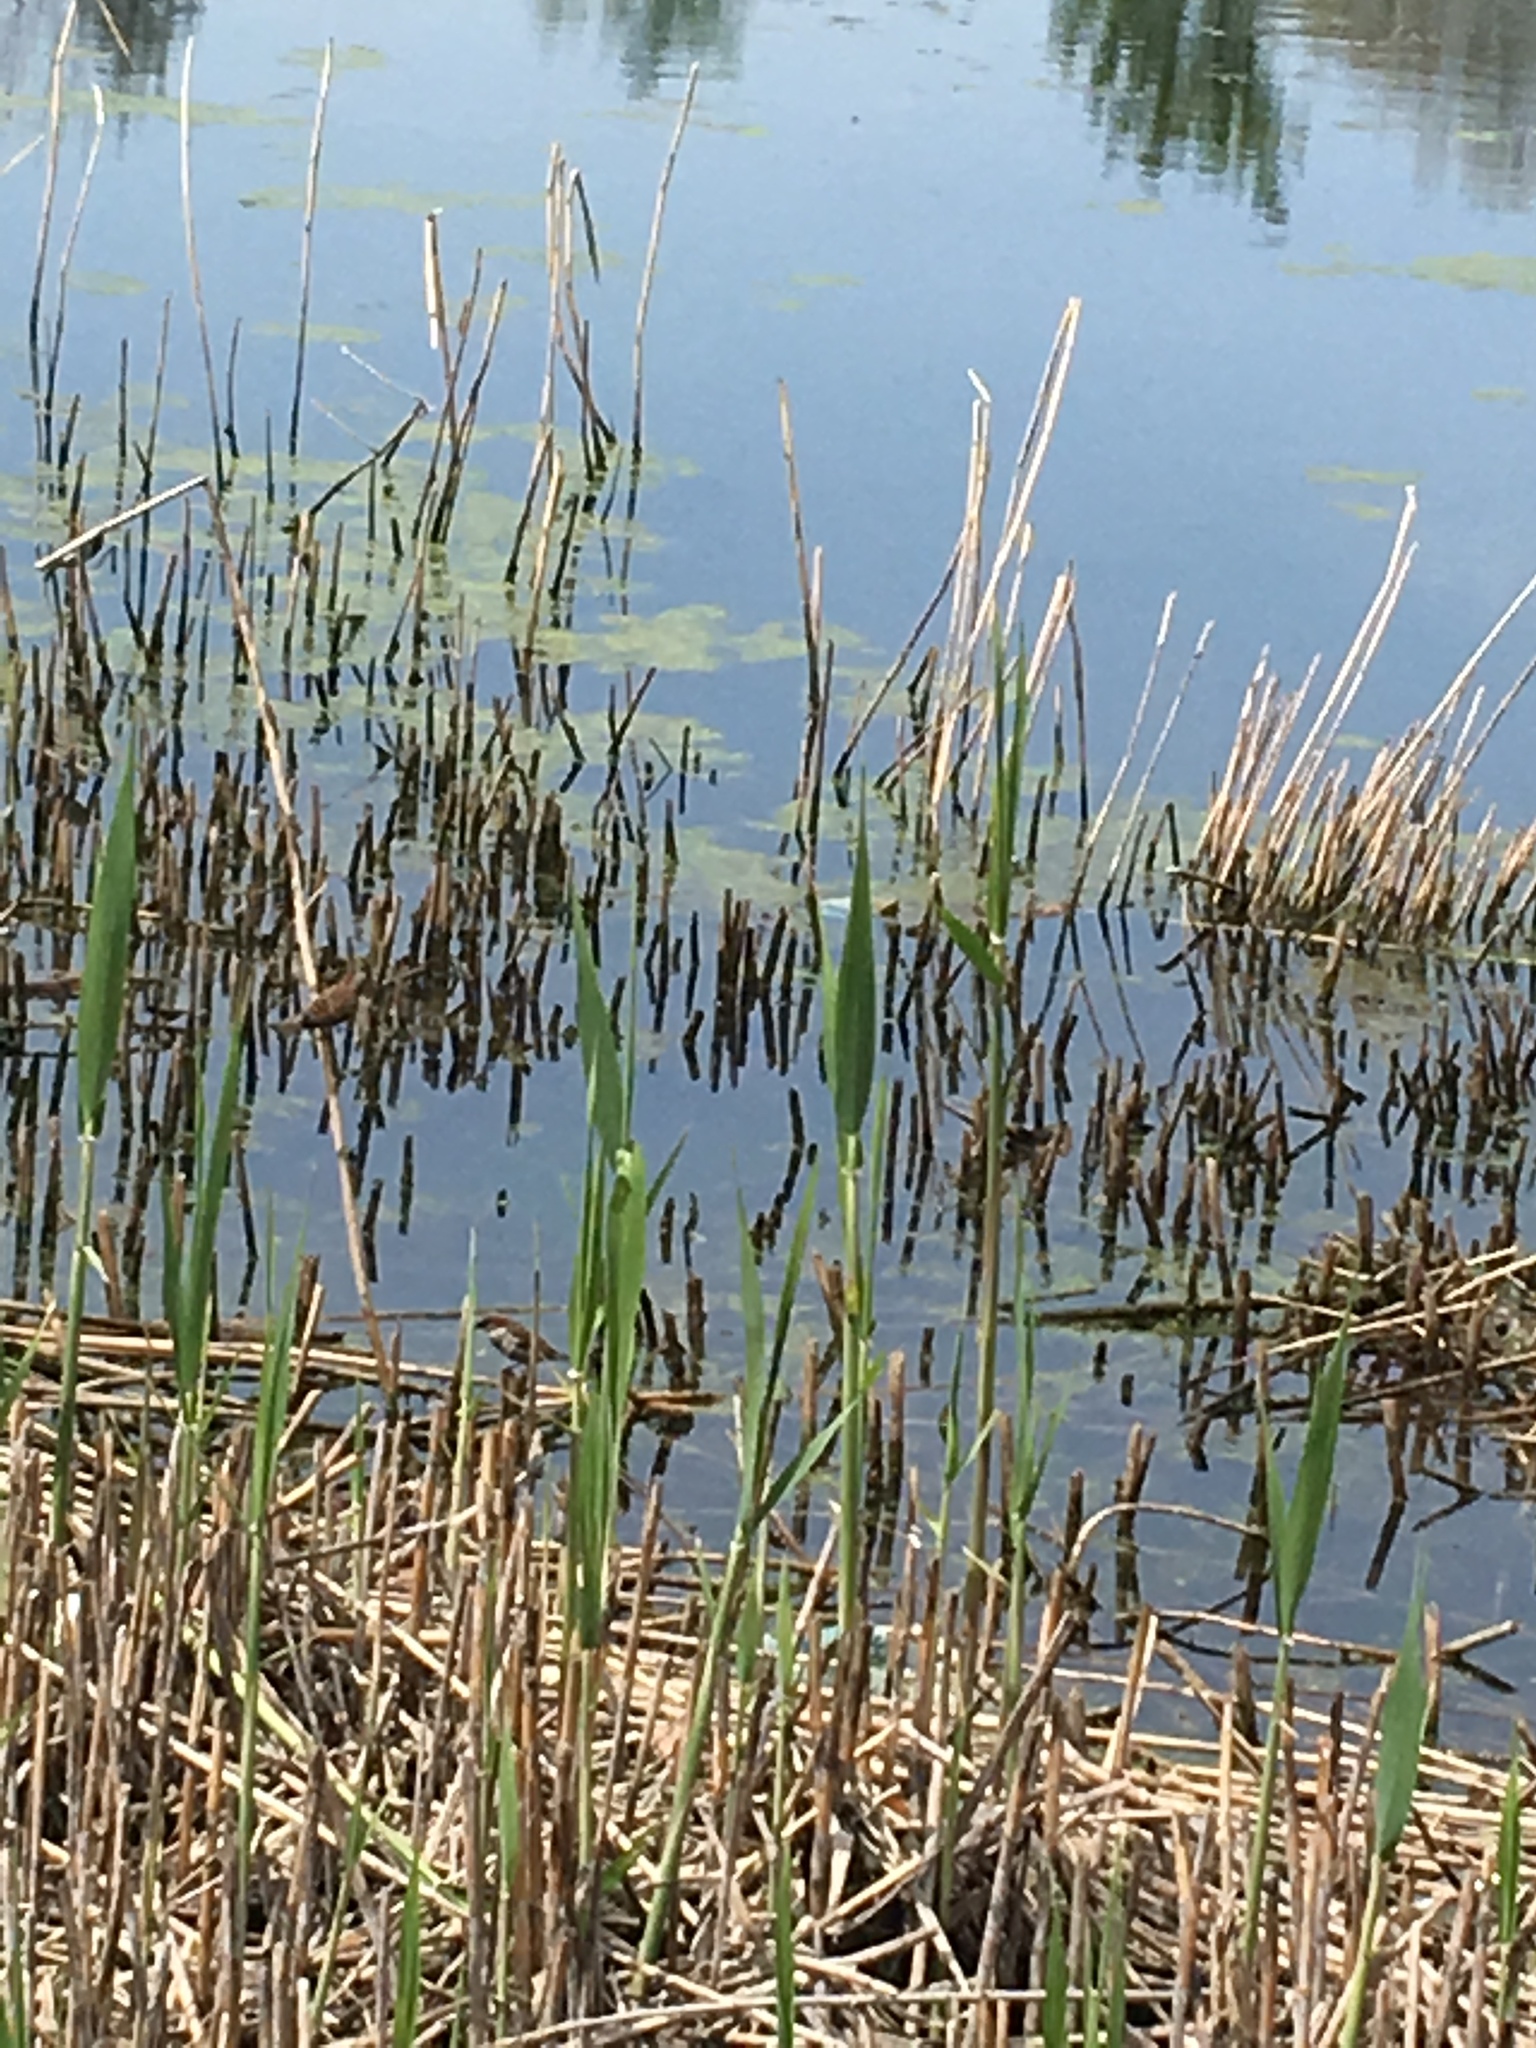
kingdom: Plantae
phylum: Tracheophyta
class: Liliopsida
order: Poales
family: Poaceae
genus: Phragmites
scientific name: Phragmites australis
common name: Common reed
